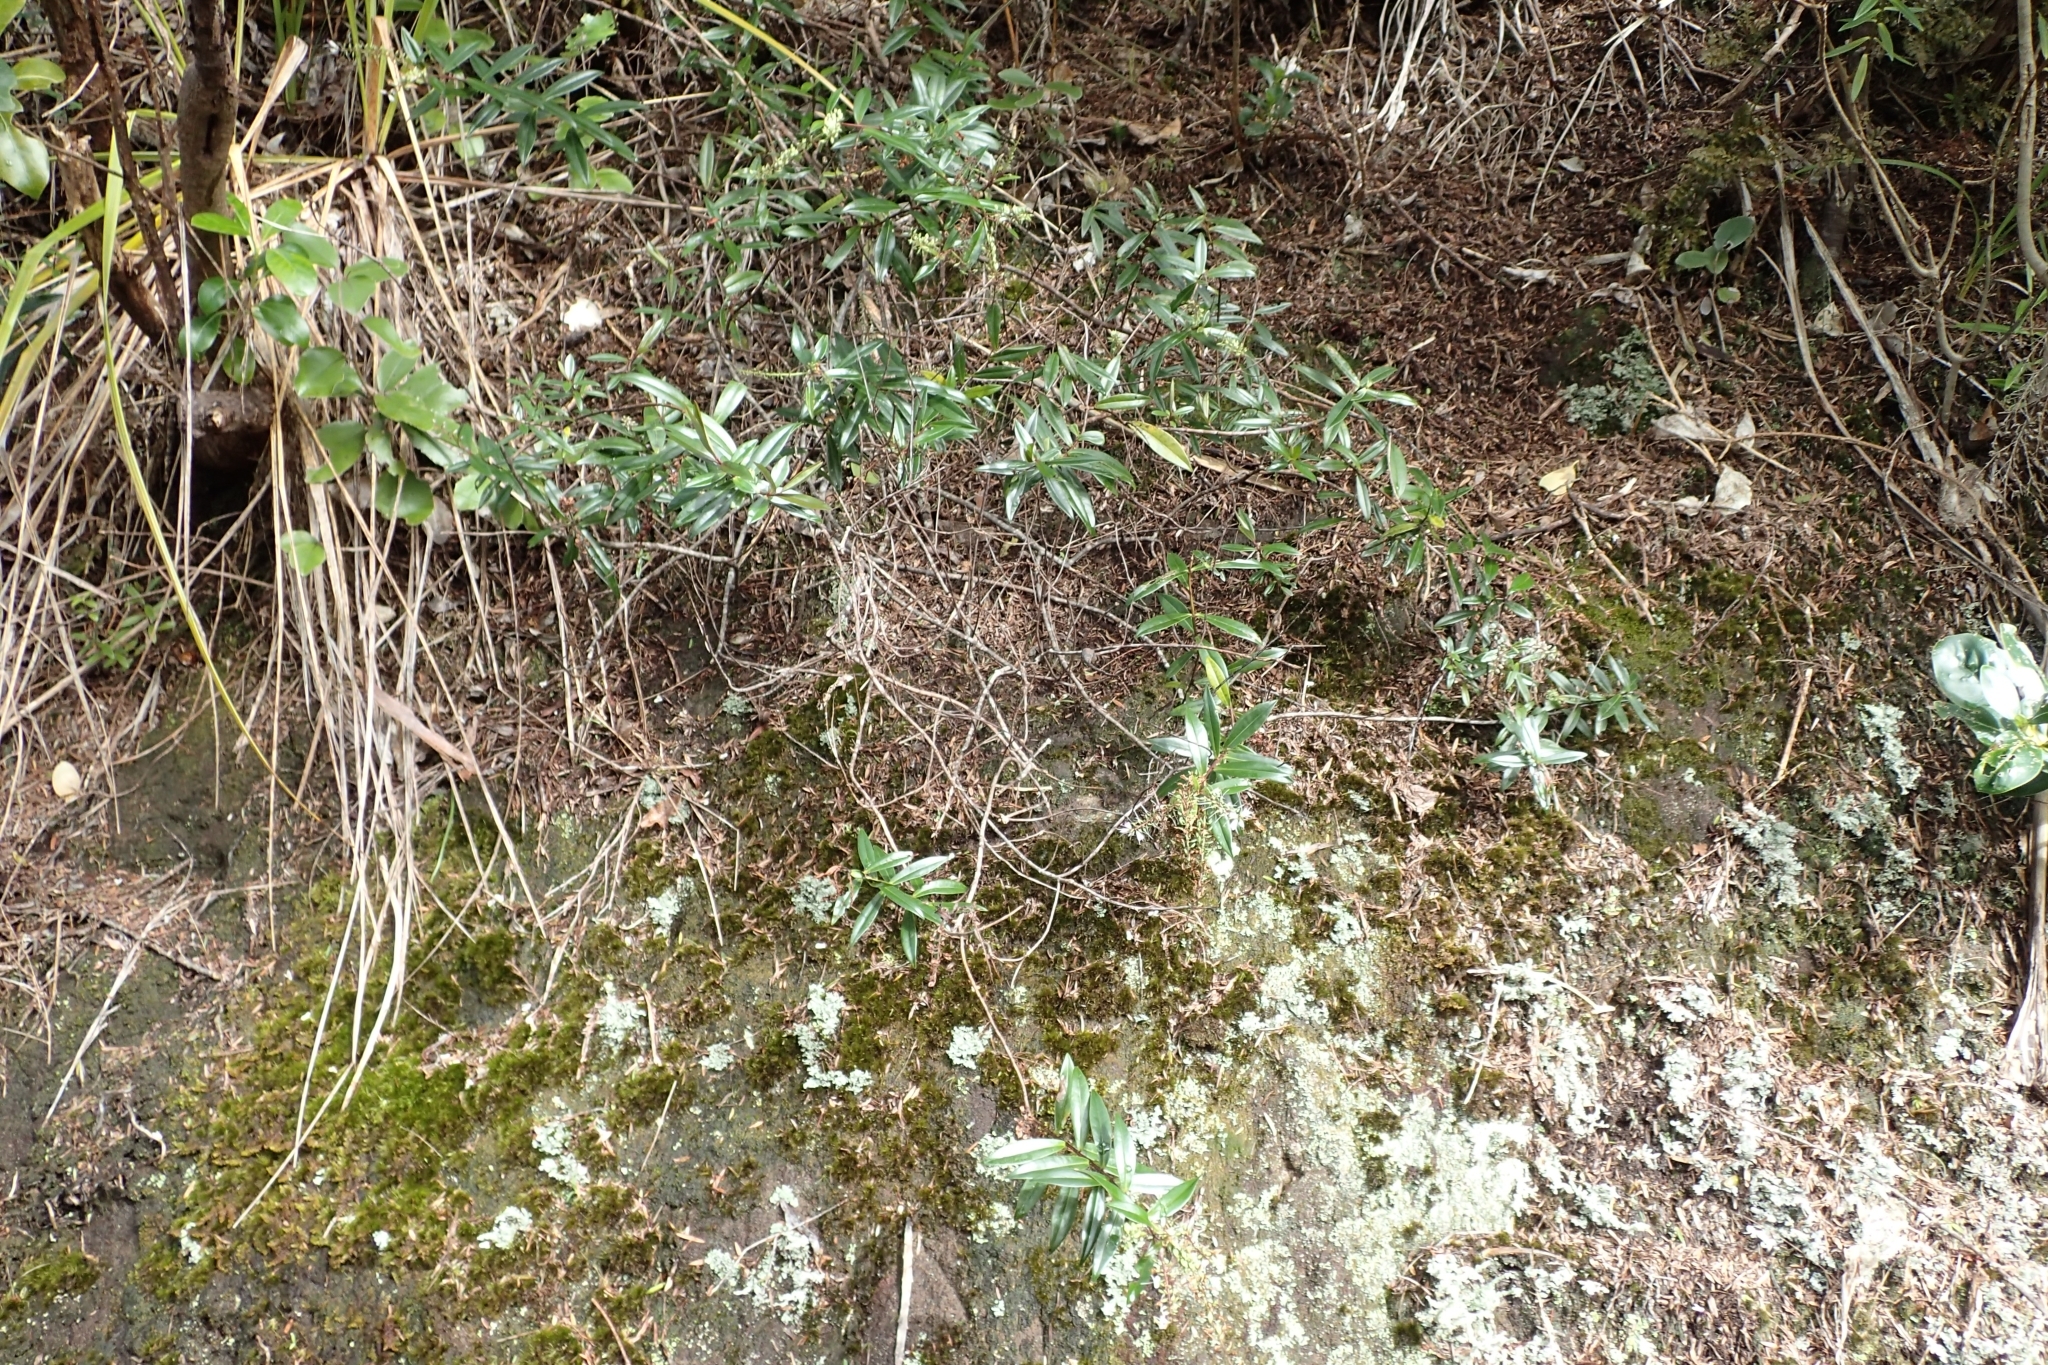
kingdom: Plantae
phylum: Tracheophyta
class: Magnoliopsida
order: Lamiales
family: Plantaginaceae
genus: Veronica
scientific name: Veronica bishopiana
